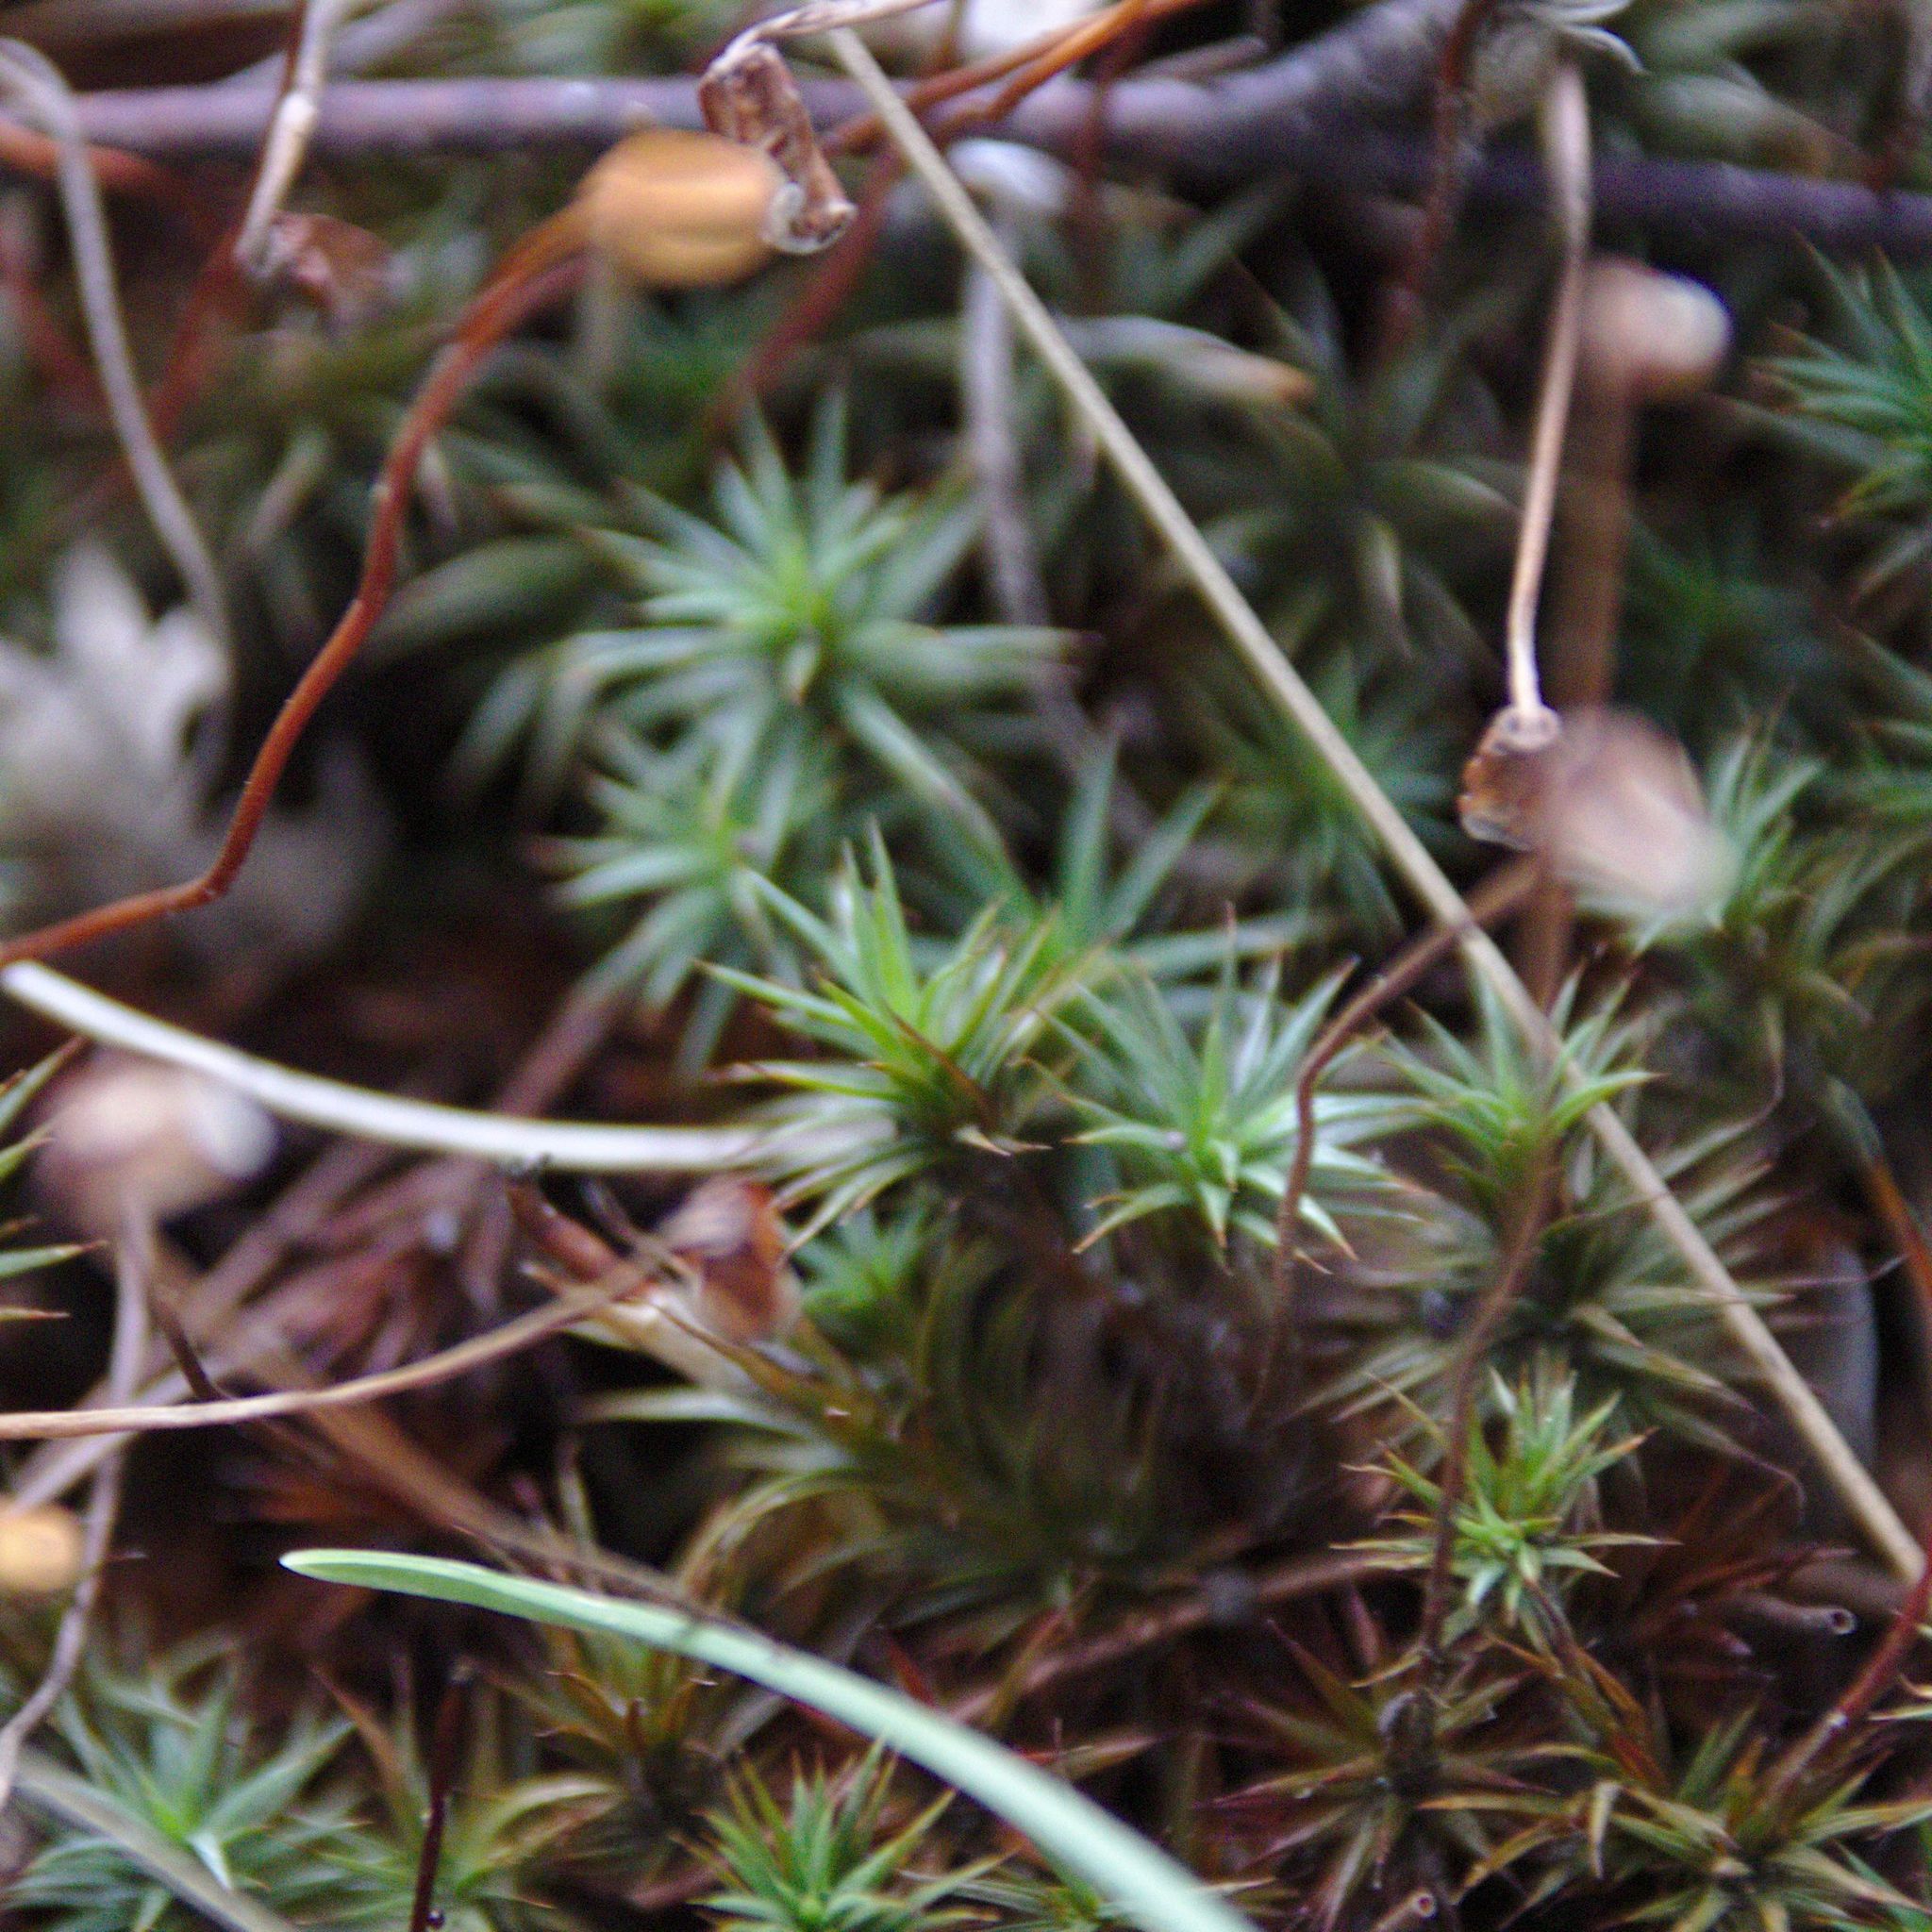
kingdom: Plantae
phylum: Bryophyta
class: Polytrichopsida
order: Polytrichales
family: Polytrichaceae
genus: Polytrichum
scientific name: Polytrichum juniperinum
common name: Juniper haircap moss
